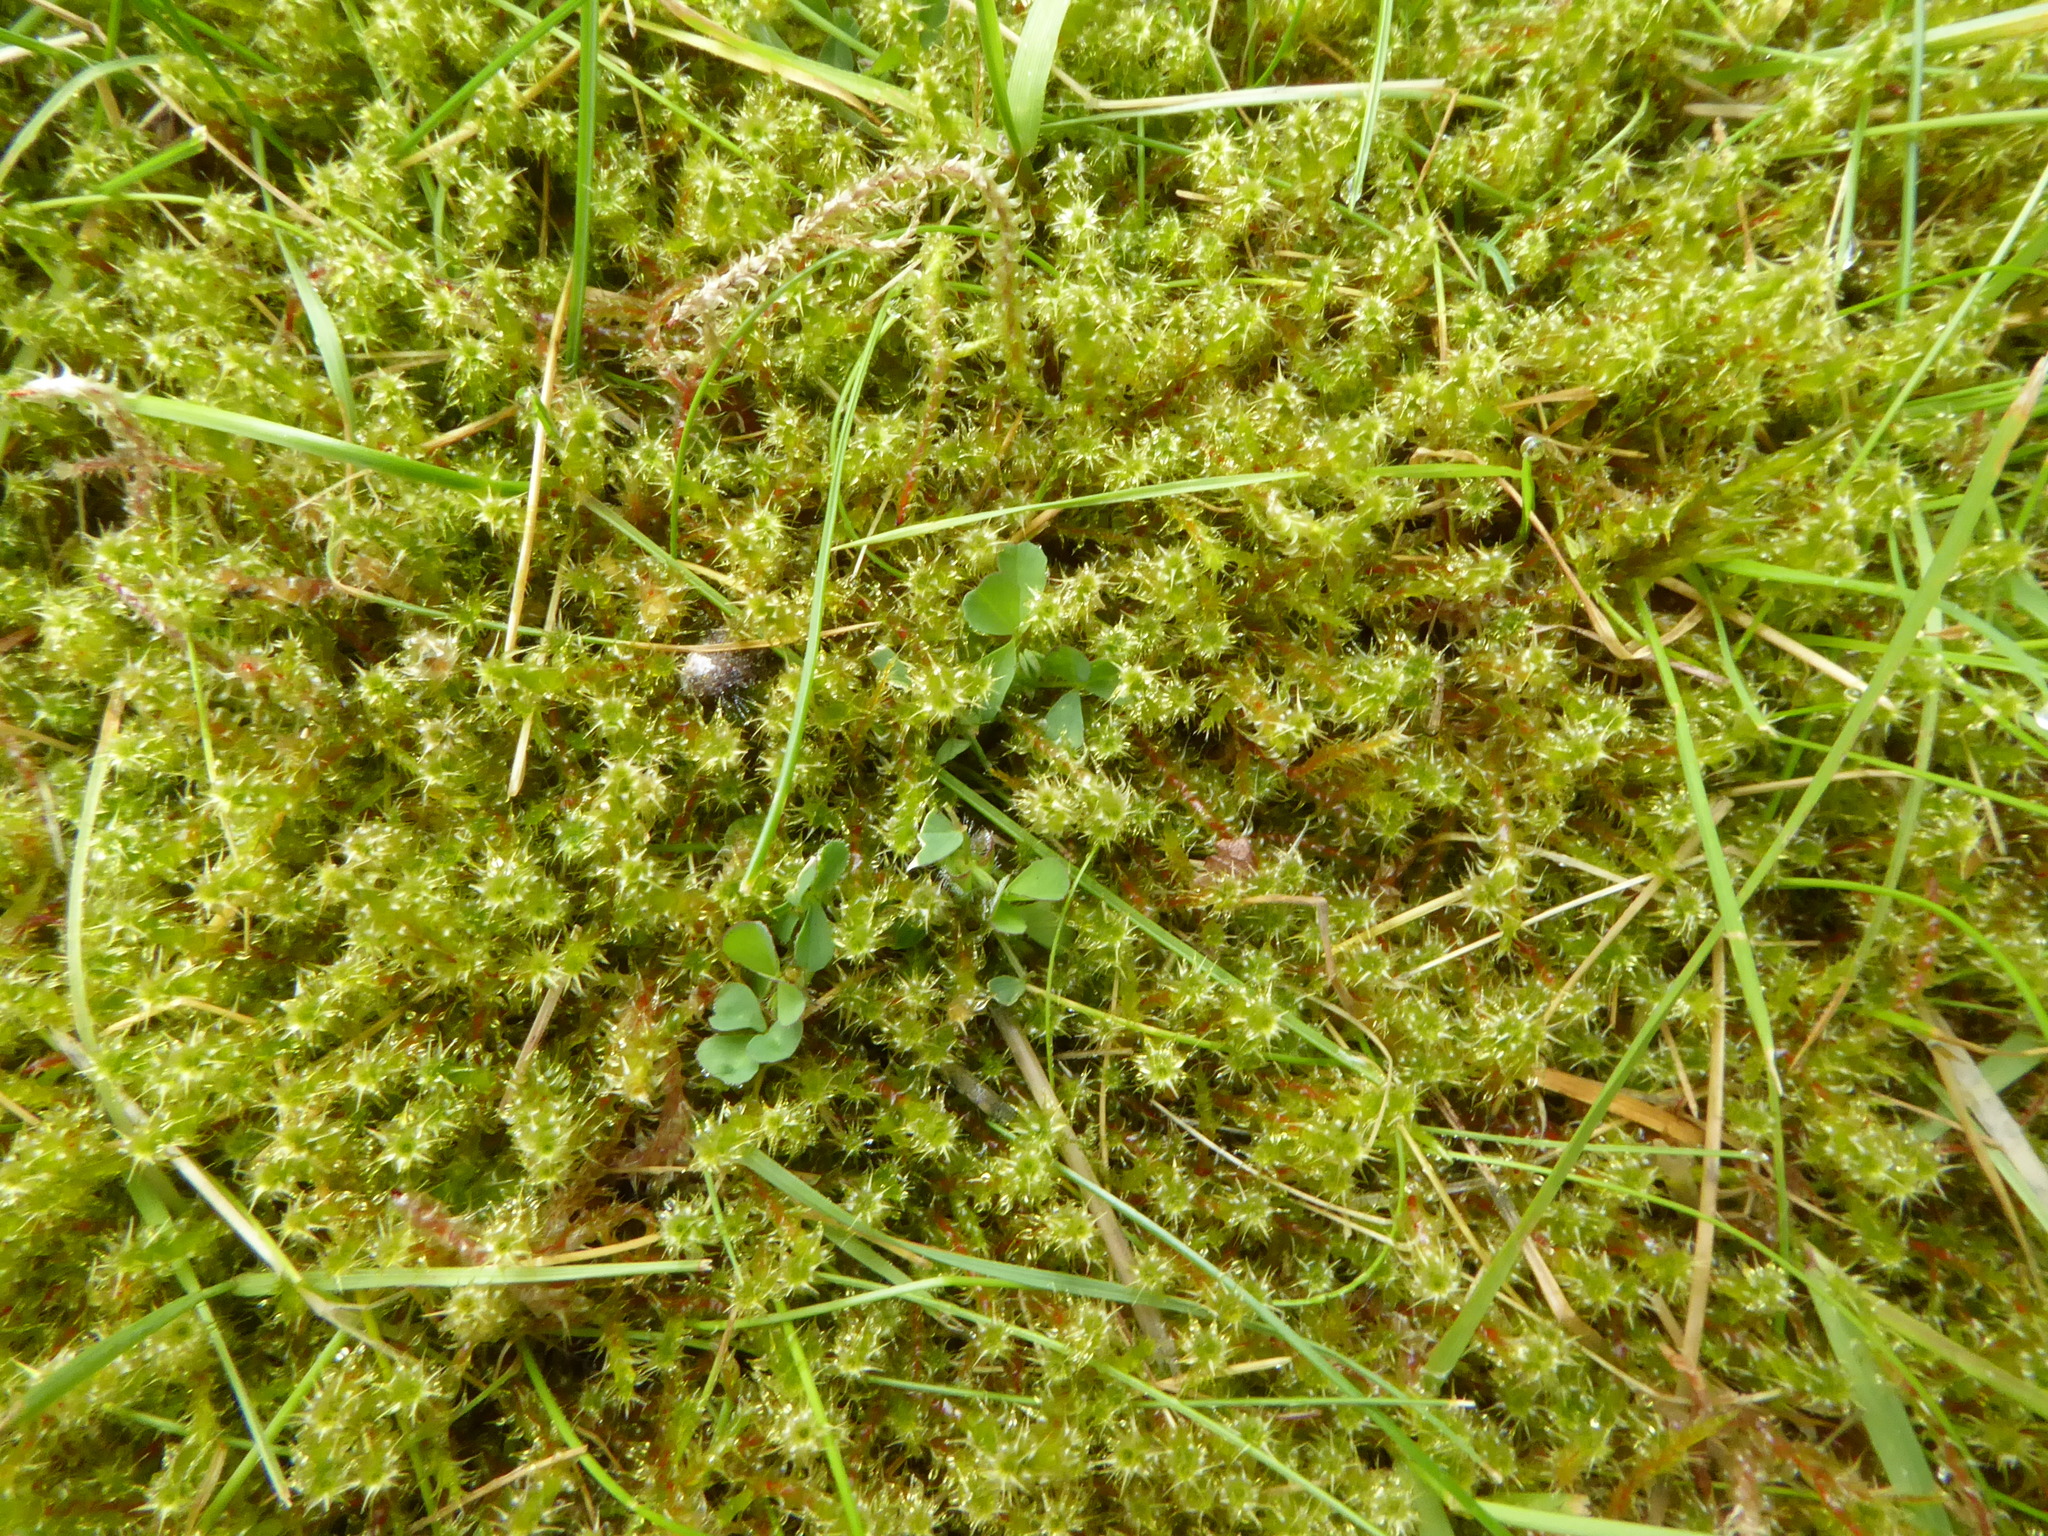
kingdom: Plantae
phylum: Bryophyta
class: Bryopsida
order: Hypnales
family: Hylocomiaceae
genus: Rhytidiadelphus
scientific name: Rhytidiadelphus squarrosus
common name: Springy turf-moss
